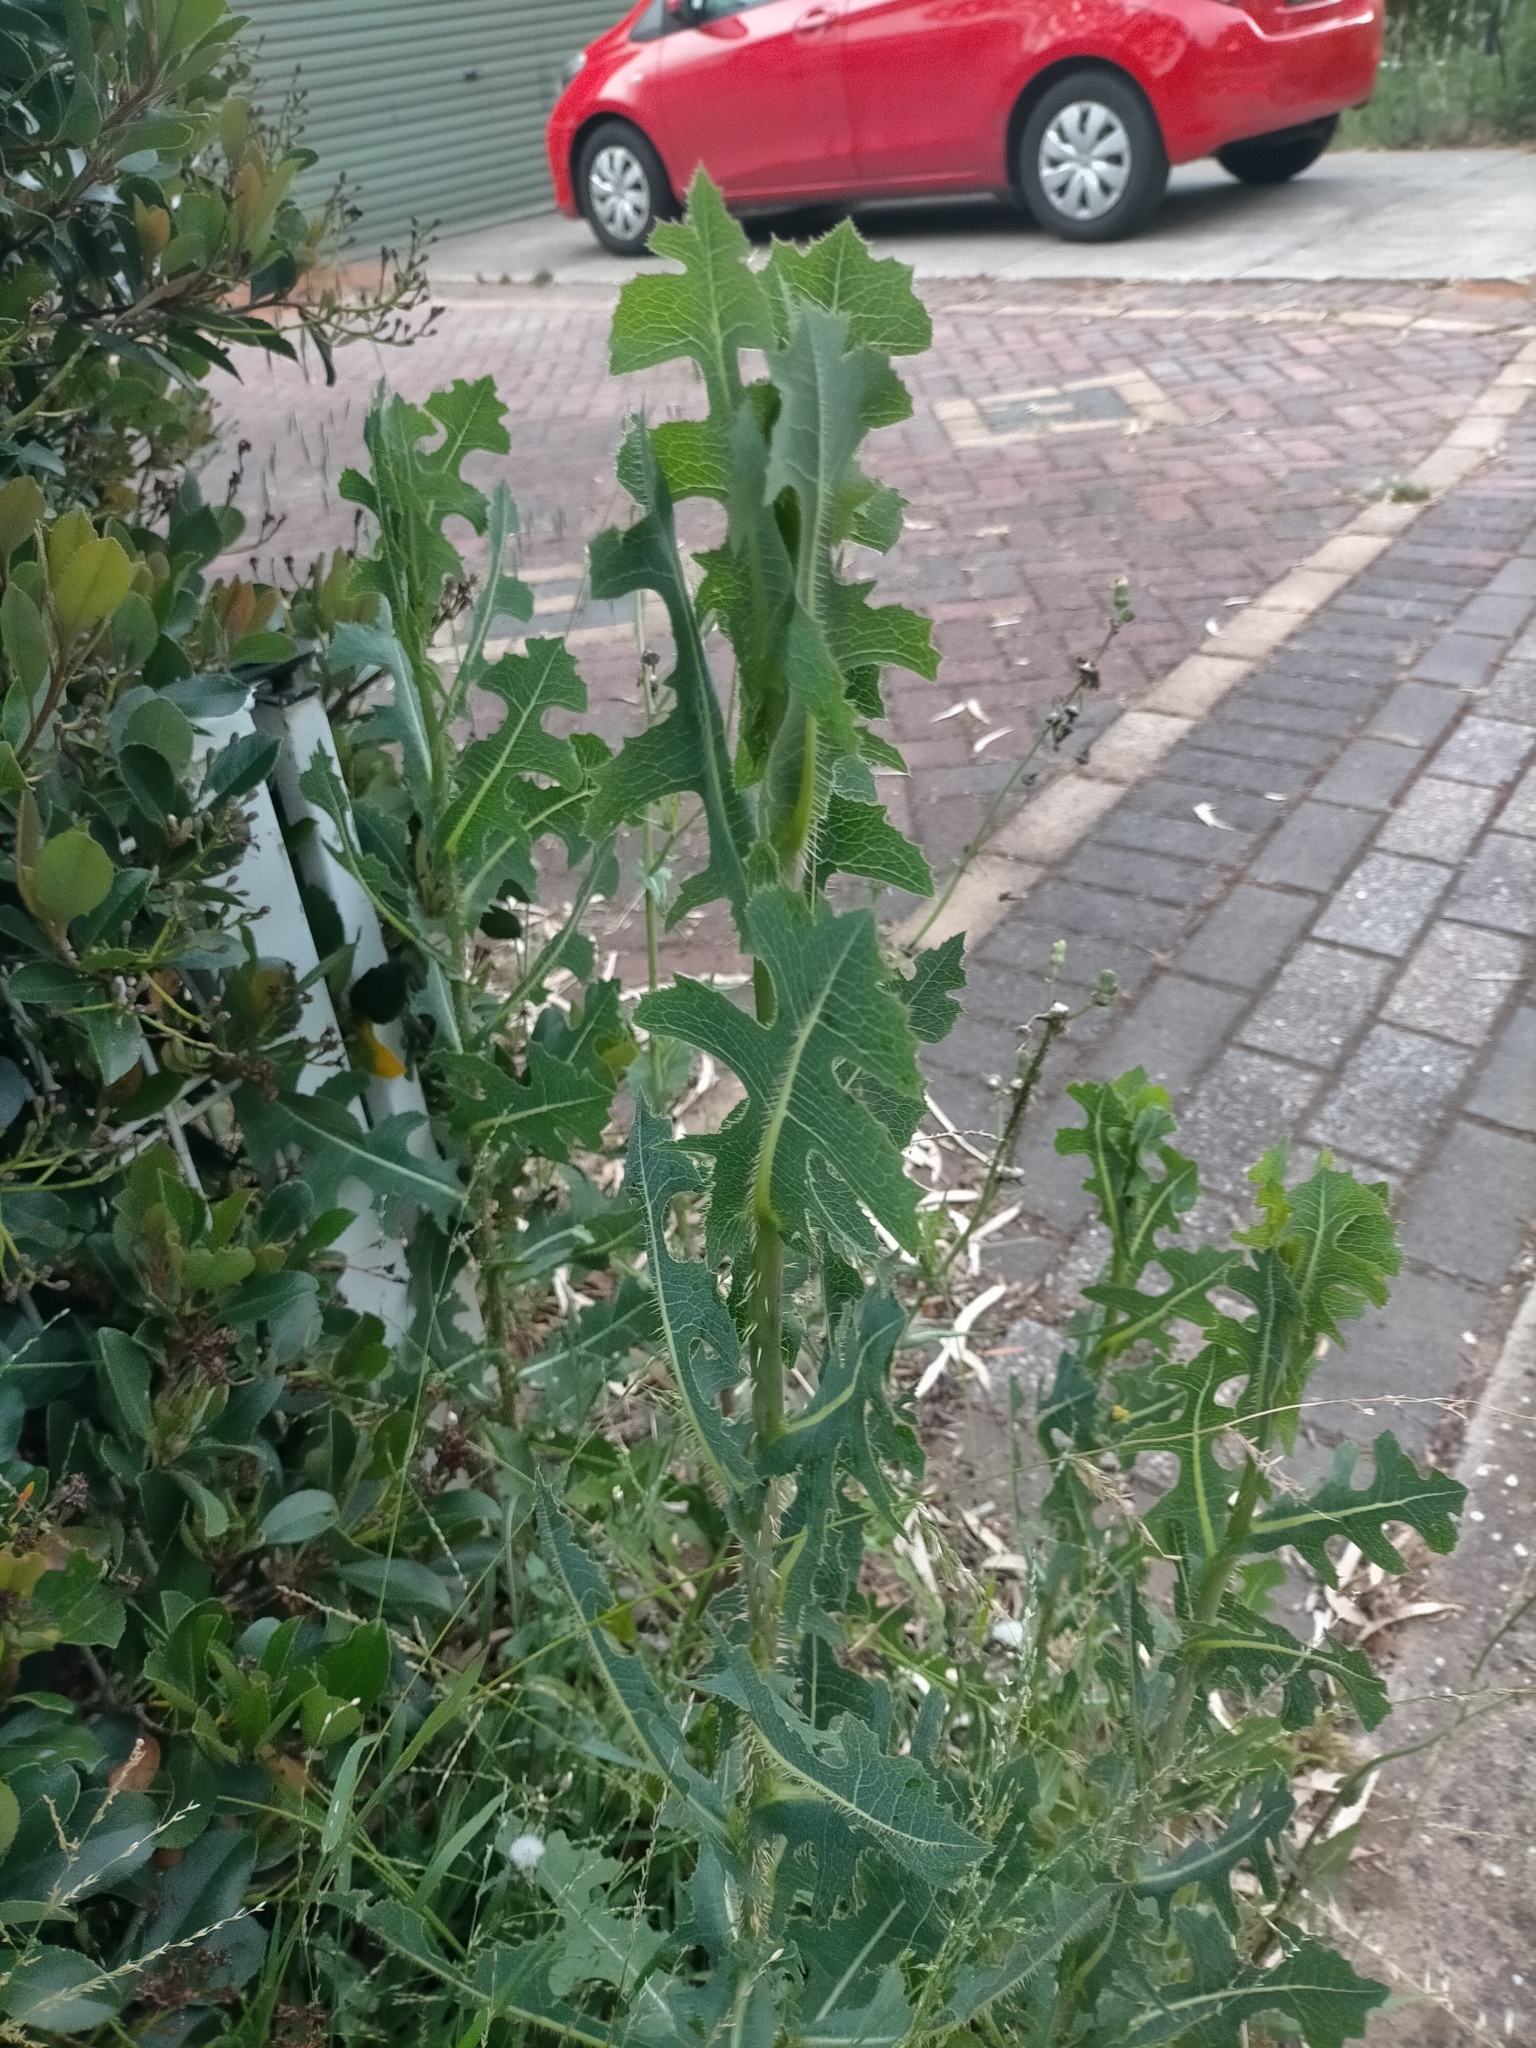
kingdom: Plantae
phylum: Tracheophyta
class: Magnoliopsida
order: Asterales
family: Asteraceae
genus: Lactuca
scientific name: Lactuca serriola
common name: Prickly lettuce
